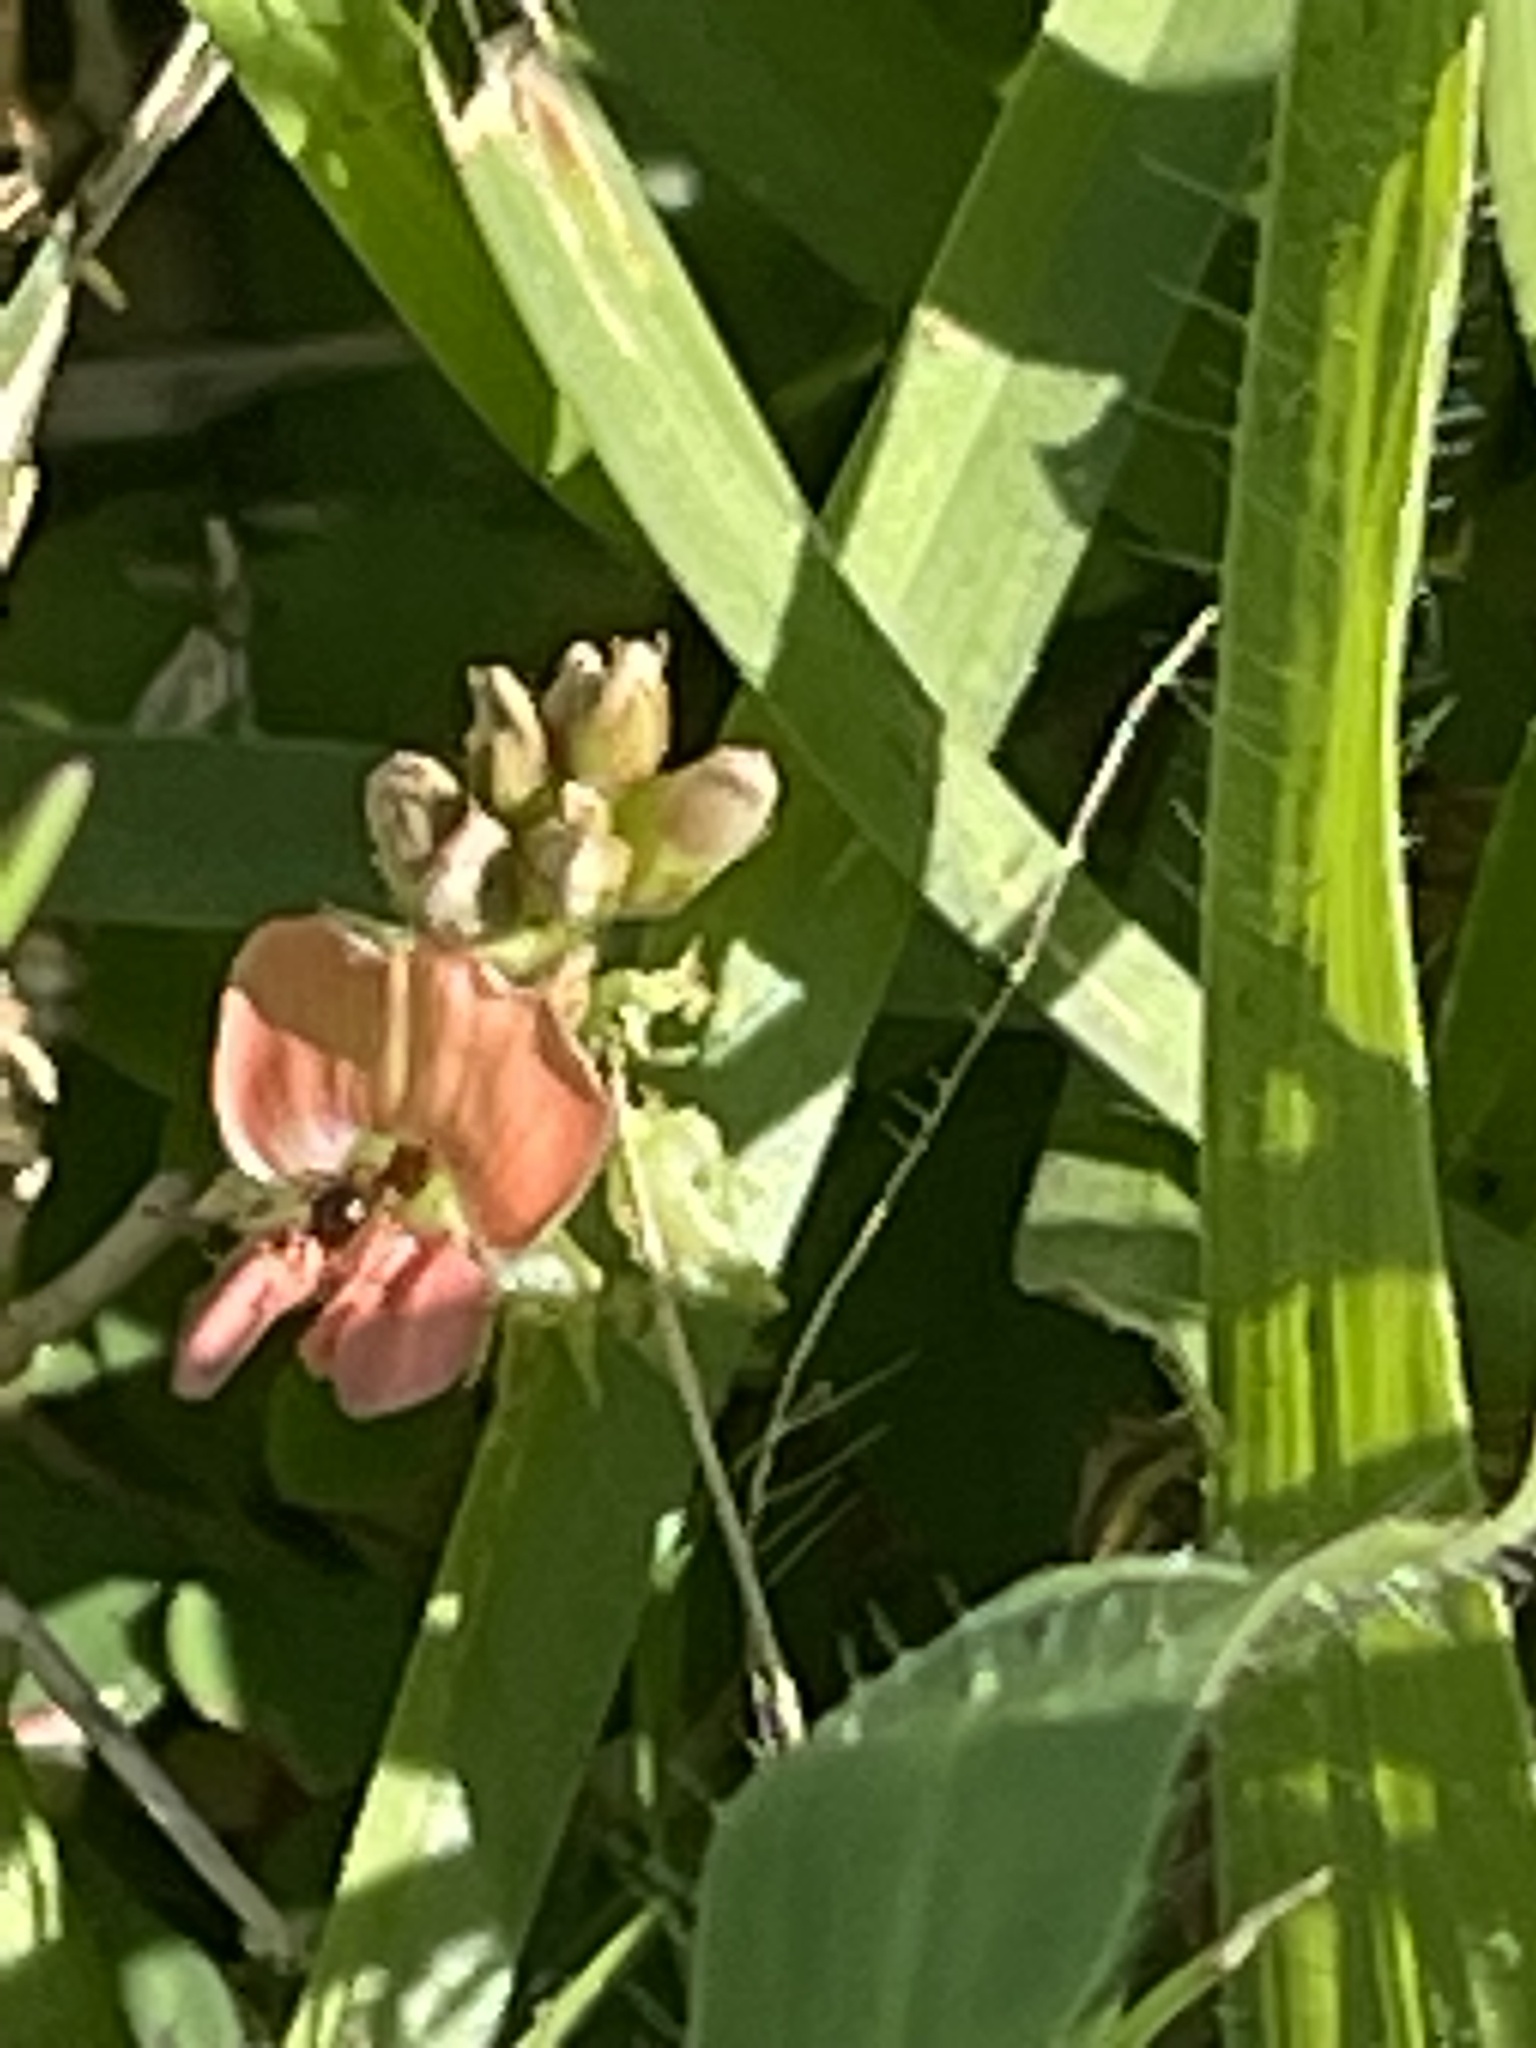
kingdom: Plantae
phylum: Tracheophyta
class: Magnoliopsida
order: Fabales
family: Fabaceae
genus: Indigofera
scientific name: Indigofera spicata
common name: Creeping indigo
